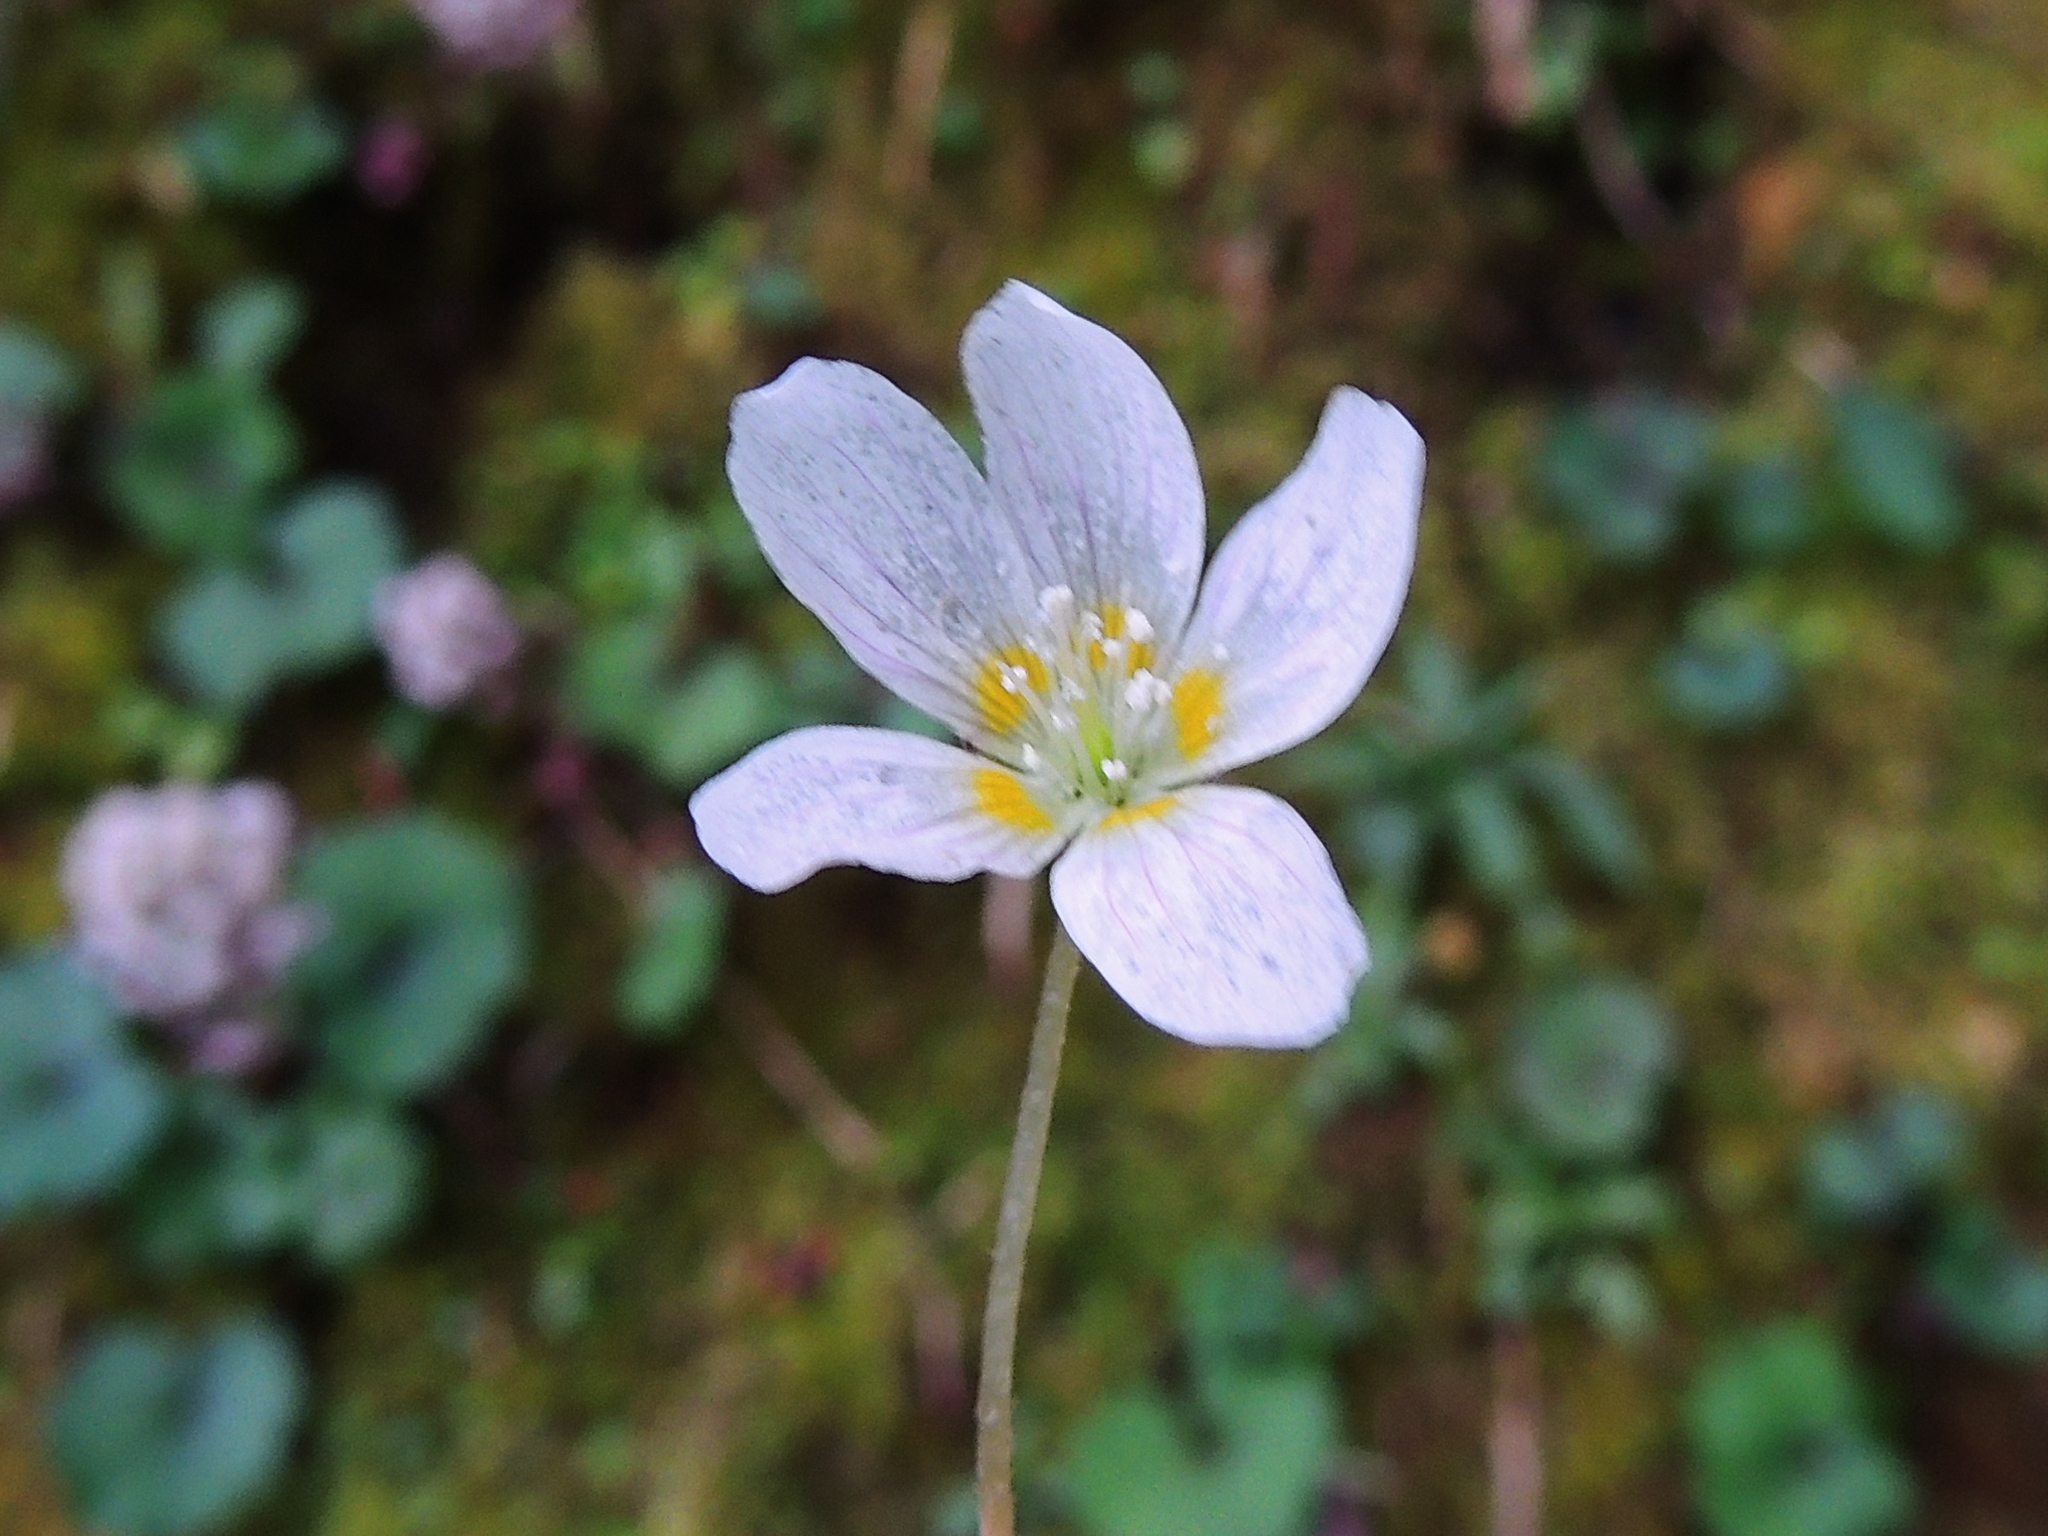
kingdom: Plantae
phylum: Tracheophyta
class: Magnoliopsida
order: Oxalidales
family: Oxalidaceae
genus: Oxalis
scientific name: Oxalis griffithii
